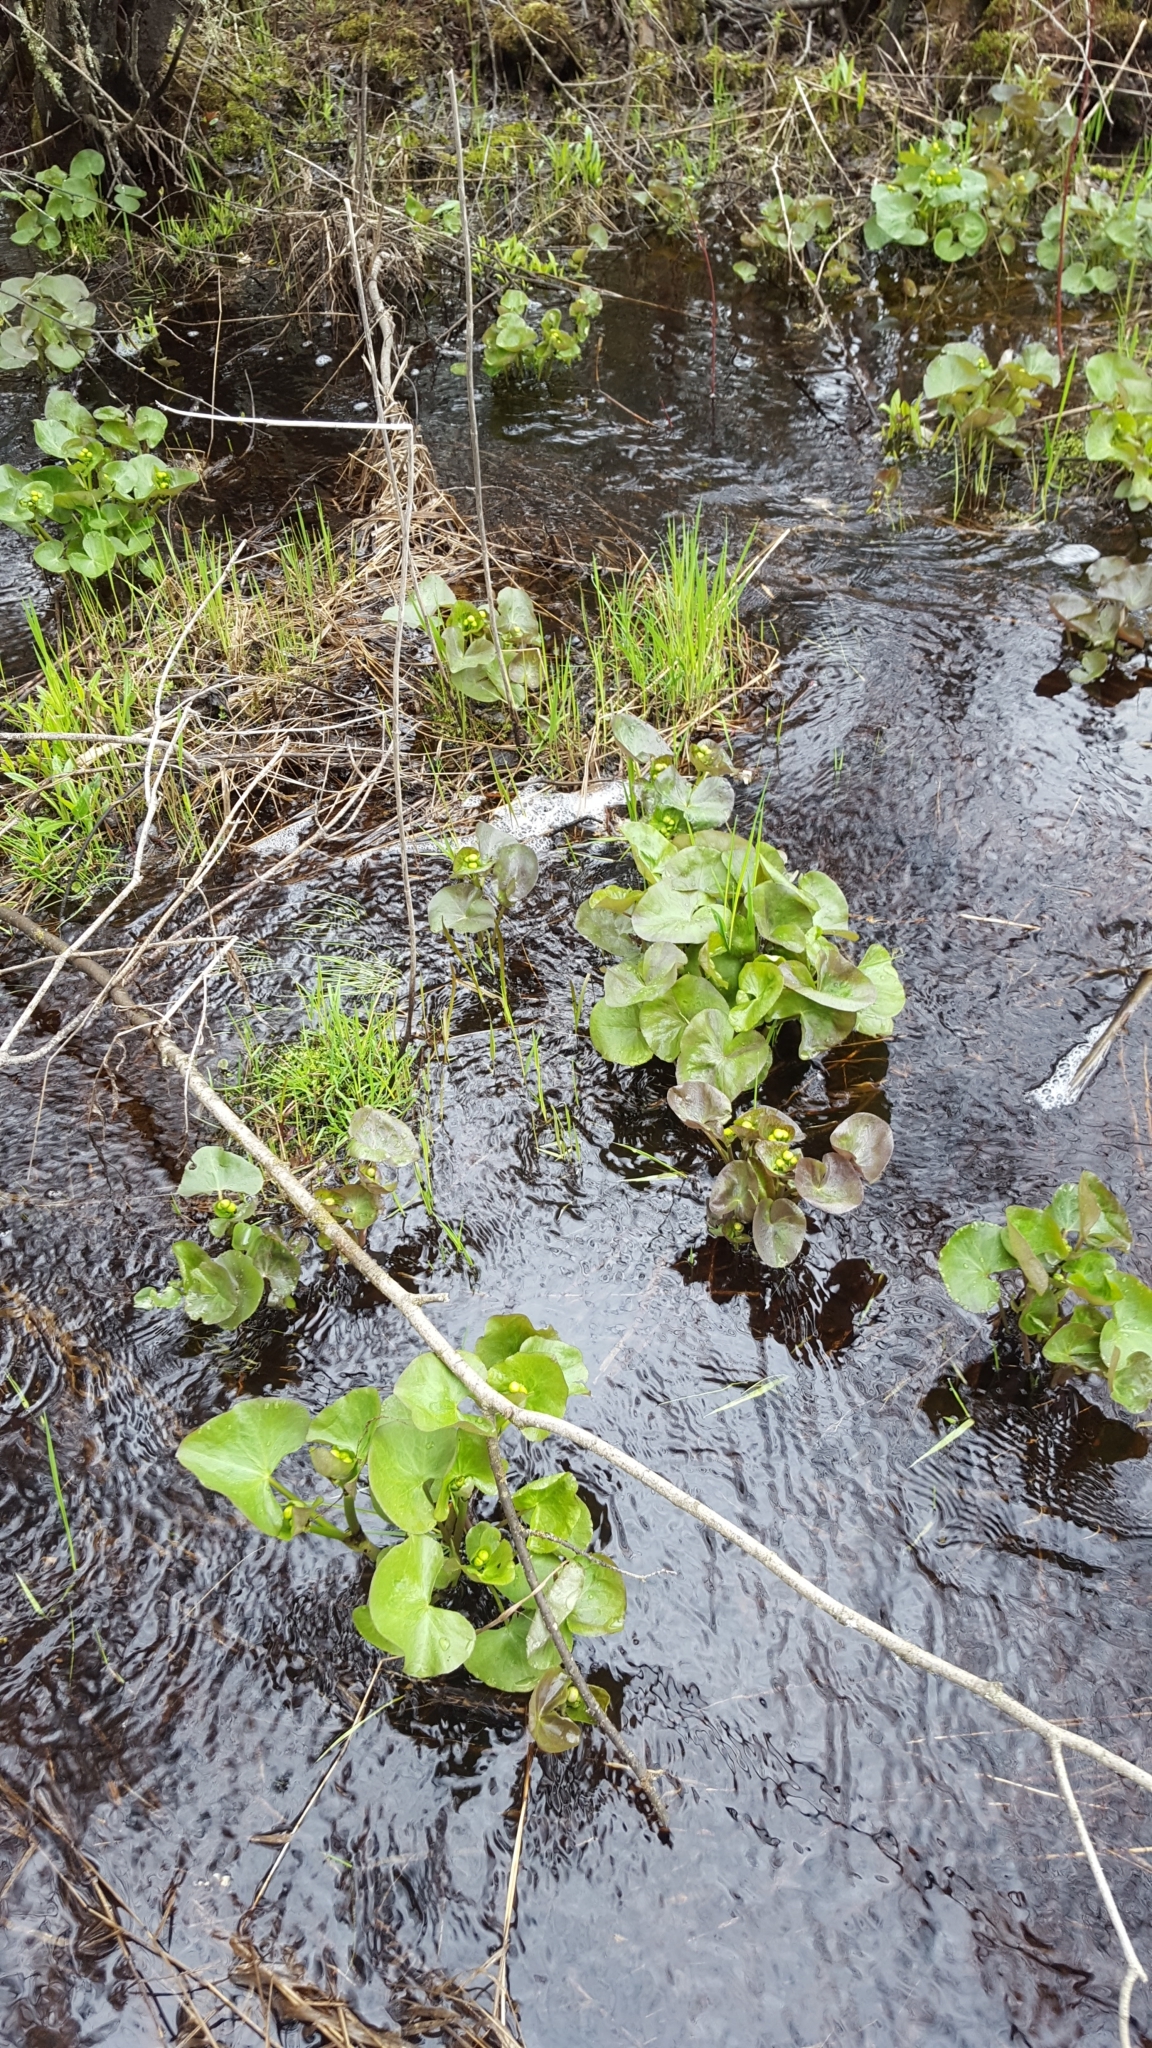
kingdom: Plantae
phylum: Tracheophyta
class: Magnoliopsida
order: Ranunculales
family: Ranunculaceae
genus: Caltha
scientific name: Caltha palustris
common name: Marsh marigold
